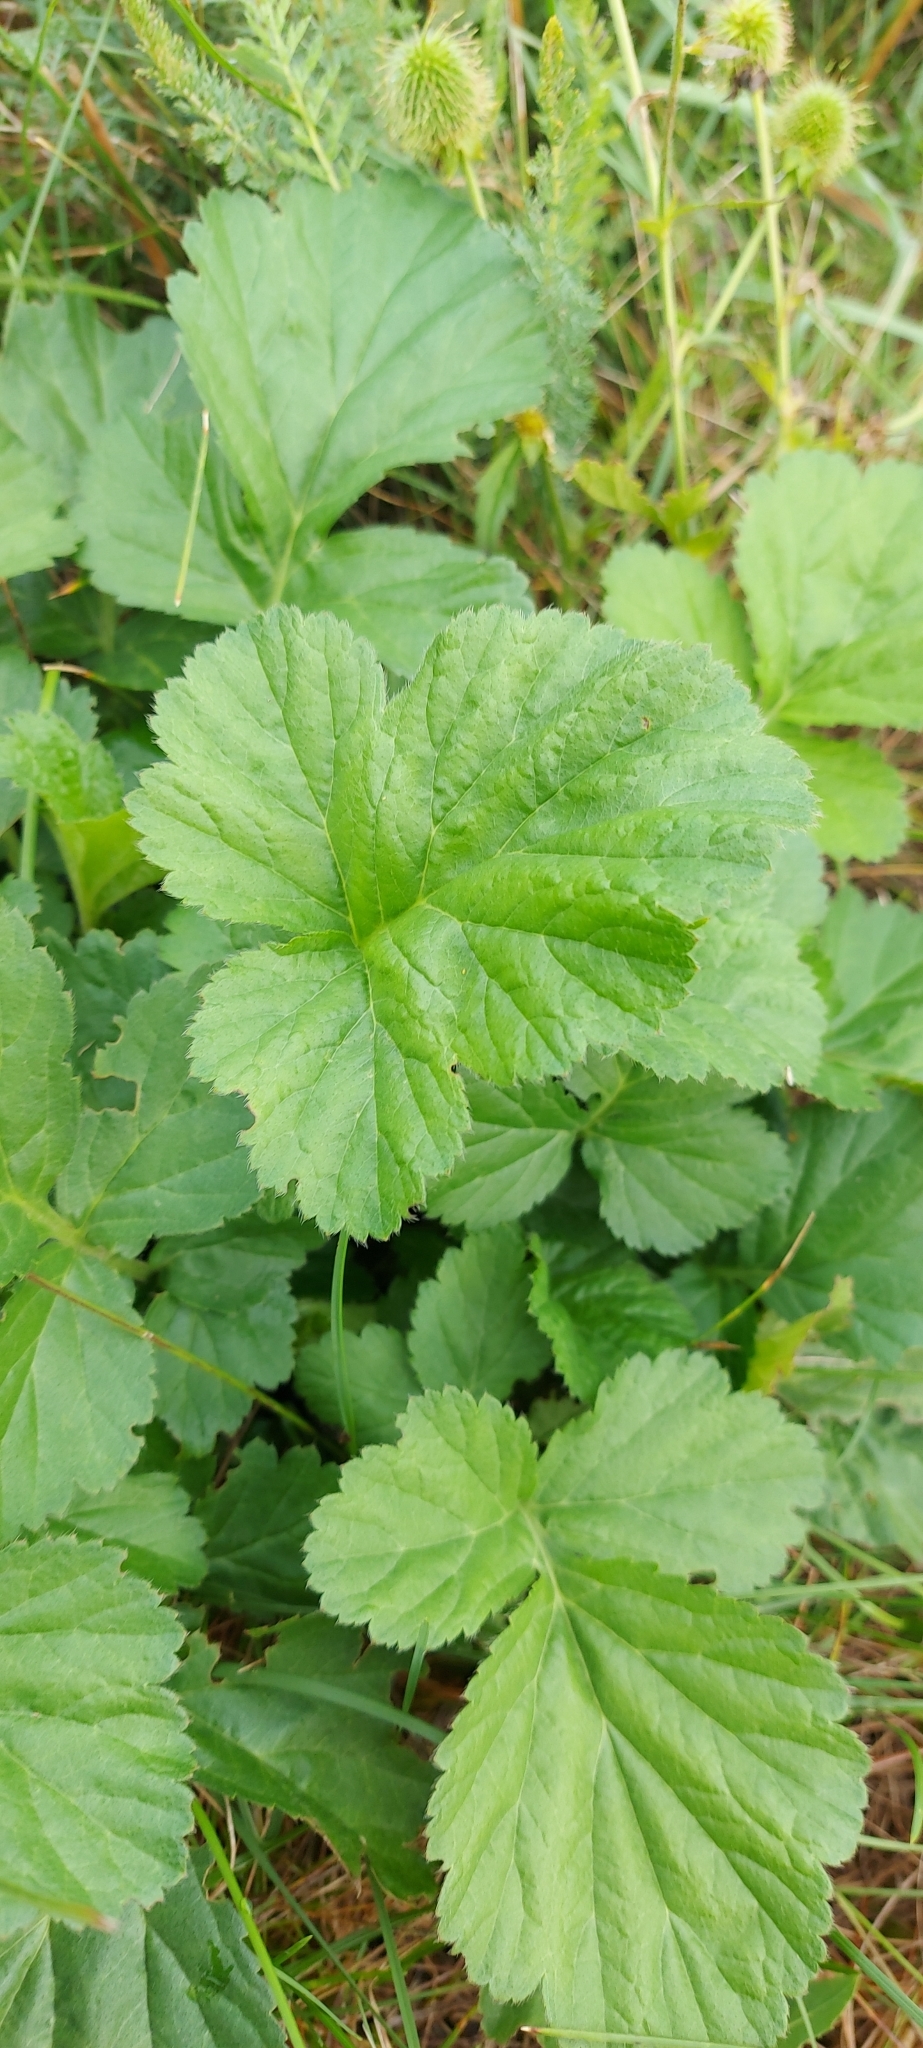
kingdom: Plantae
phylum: Tracheophyta
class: Magnoliopsida
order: Rosales
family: Rosaceae
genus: Geum
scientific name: Geum aleppicum
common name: Yellow avens
